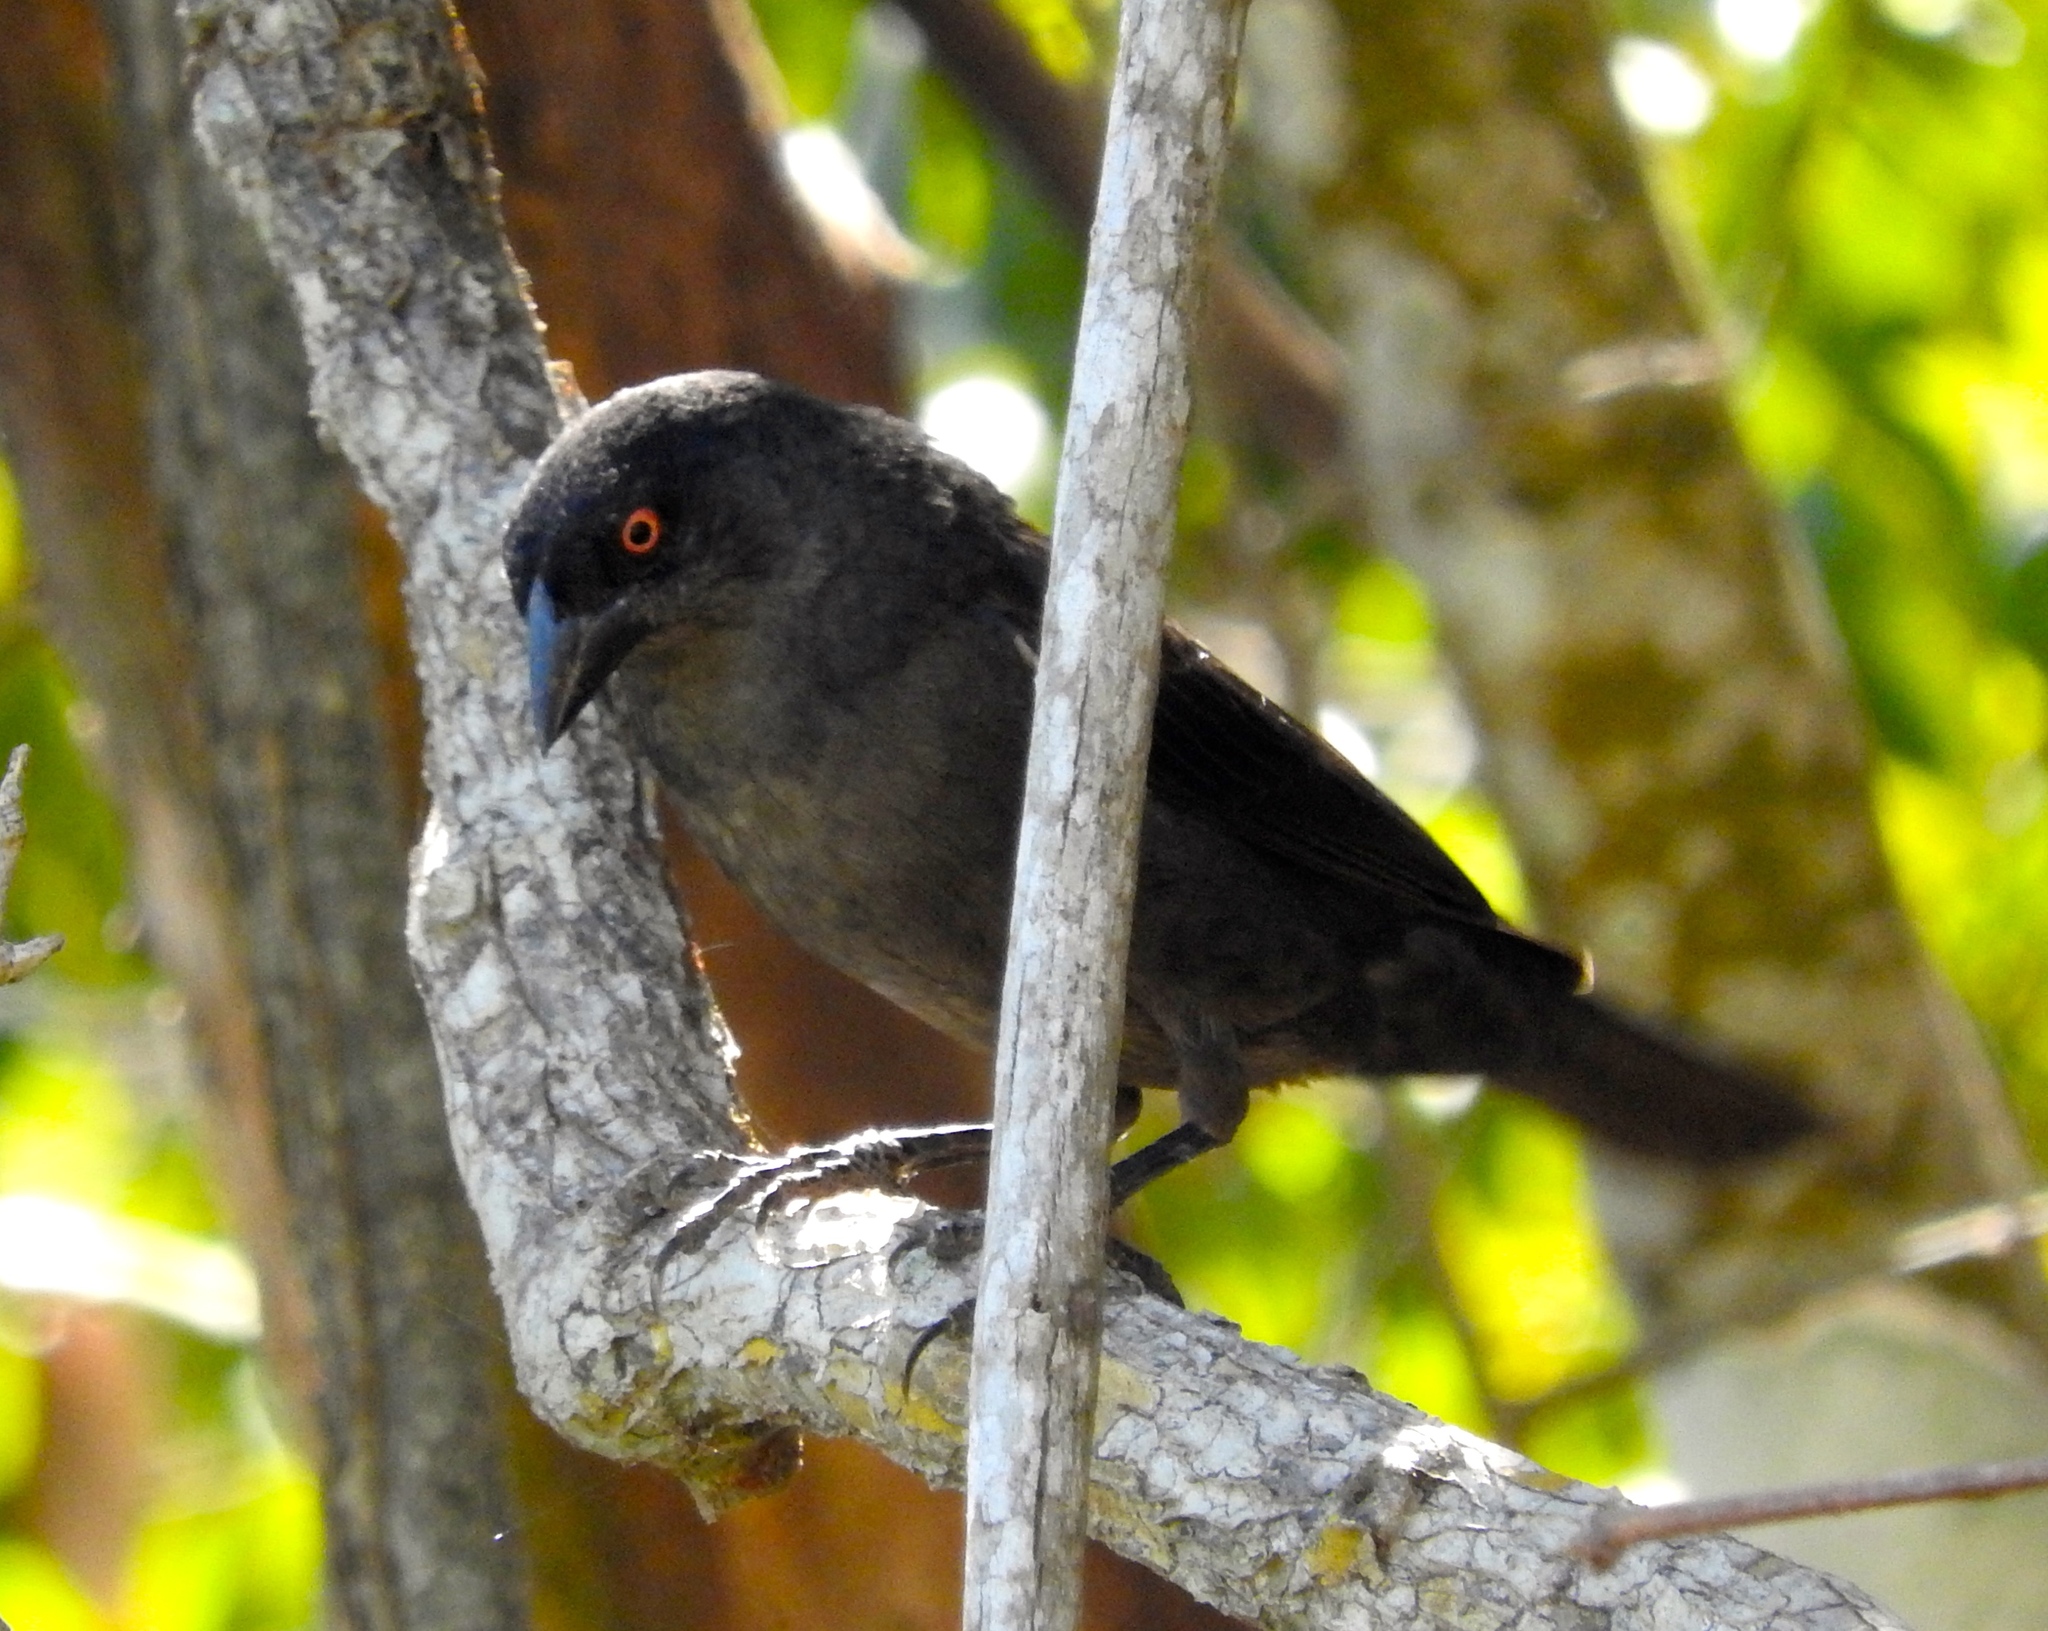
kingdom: Animalia
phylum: Chordata
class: Aves
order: Passeriformes
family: Icteridae
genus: Molothrus
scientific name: Molothrus aeneus
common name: Bronzed cowbird
